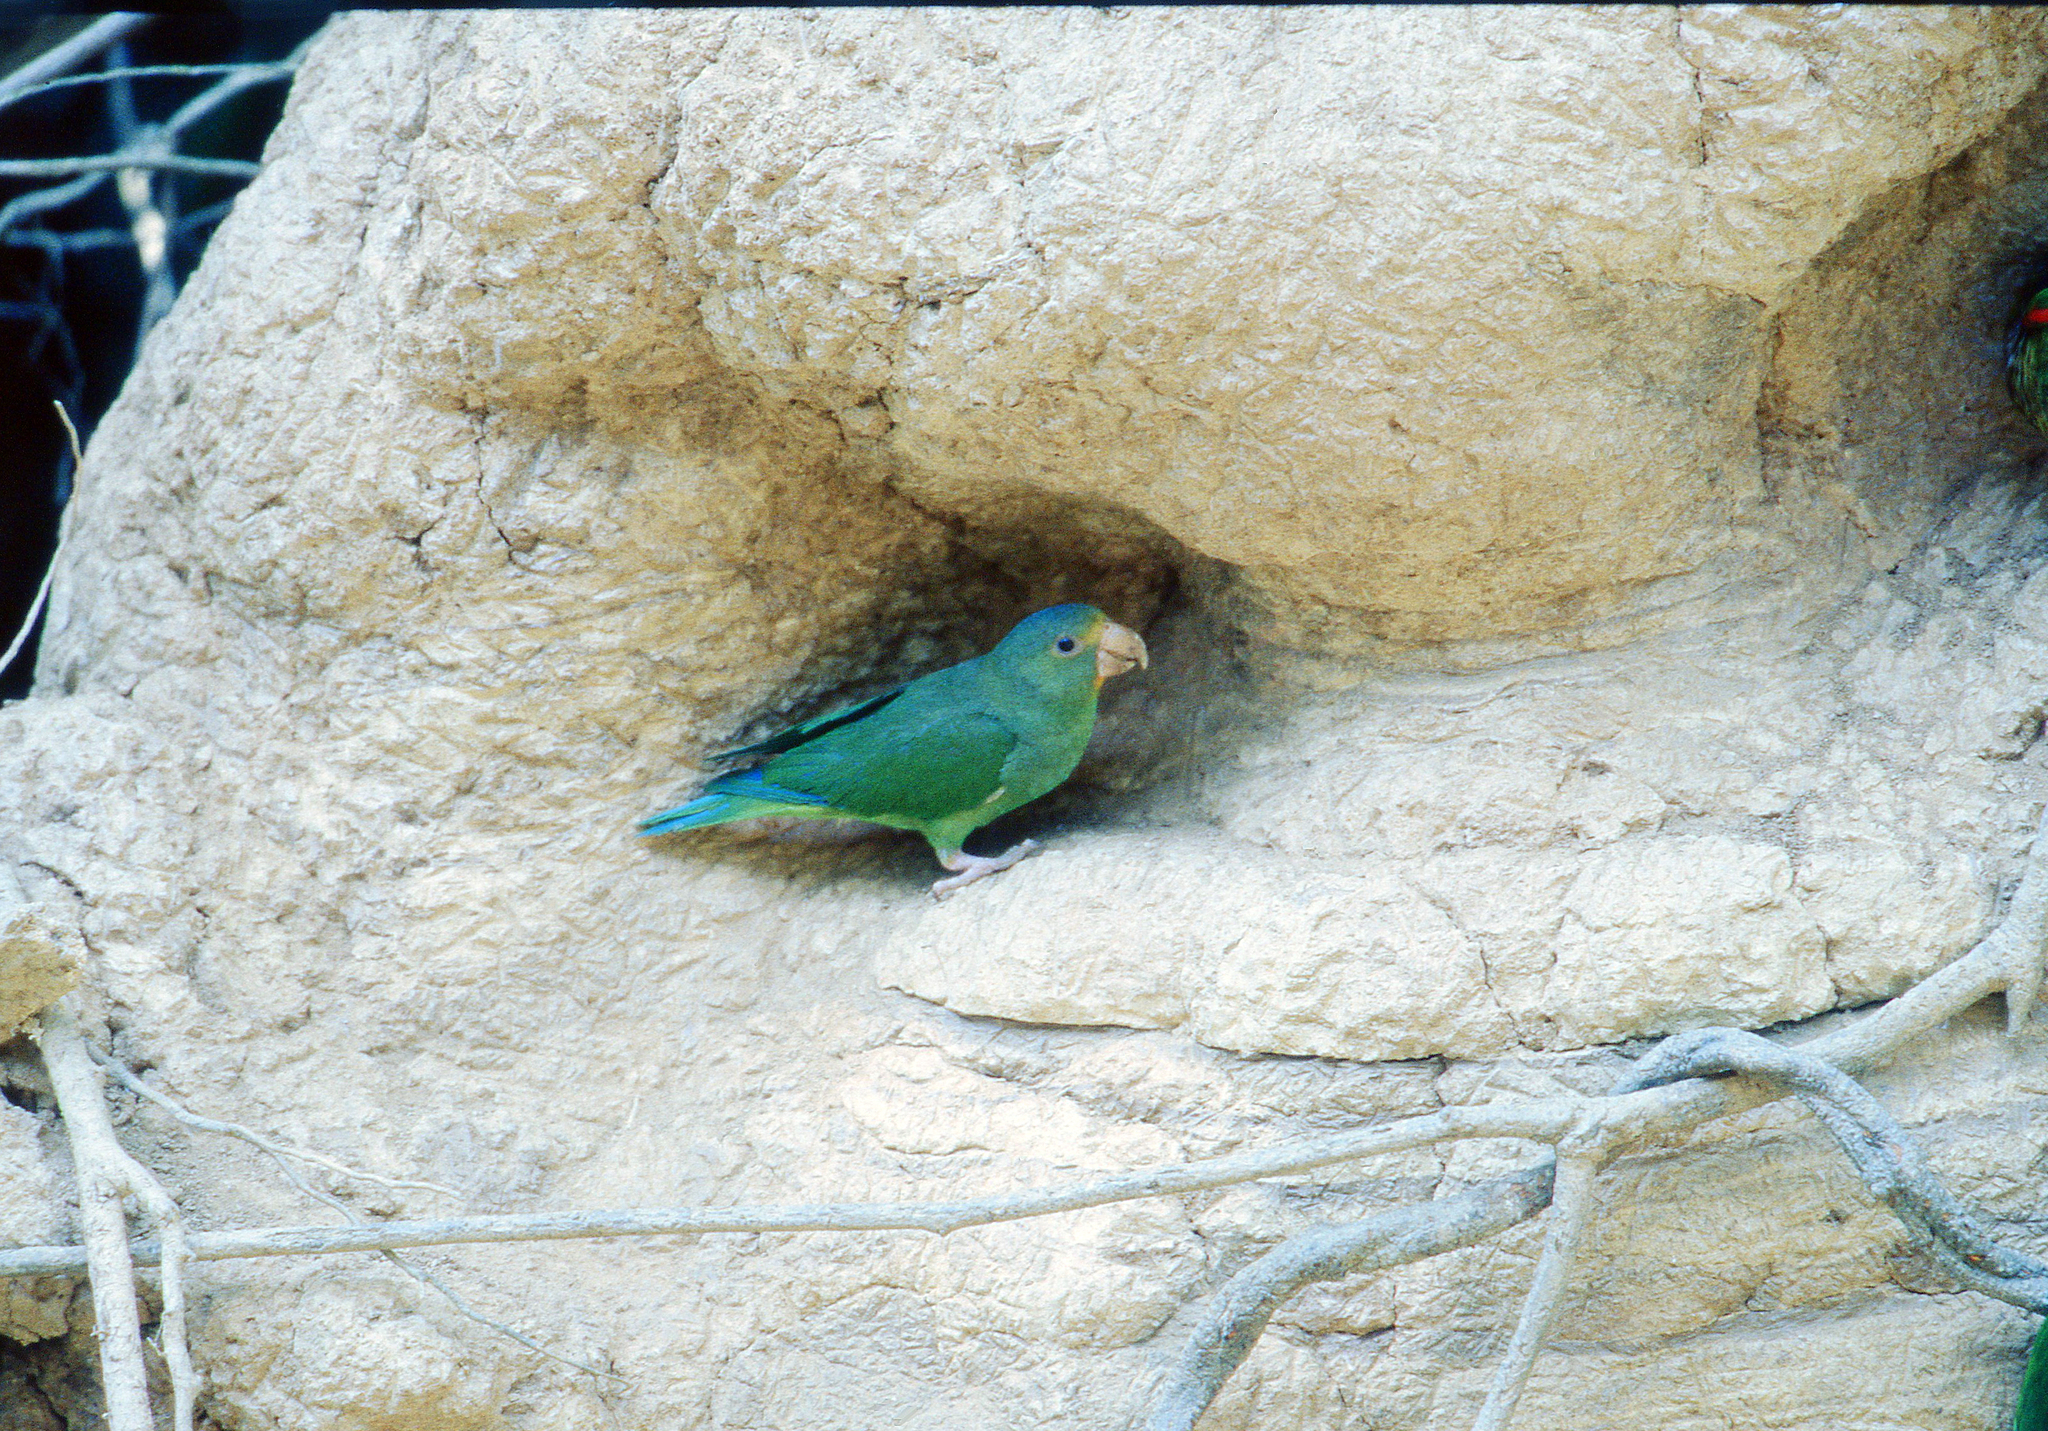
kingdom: Animalia
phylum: Chordata
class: Aves
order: Psittaciformes
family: Psittacidae
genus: Brotogeris
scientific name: Brotogeris cyanoptera
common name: Cobalt-winged parakeet
